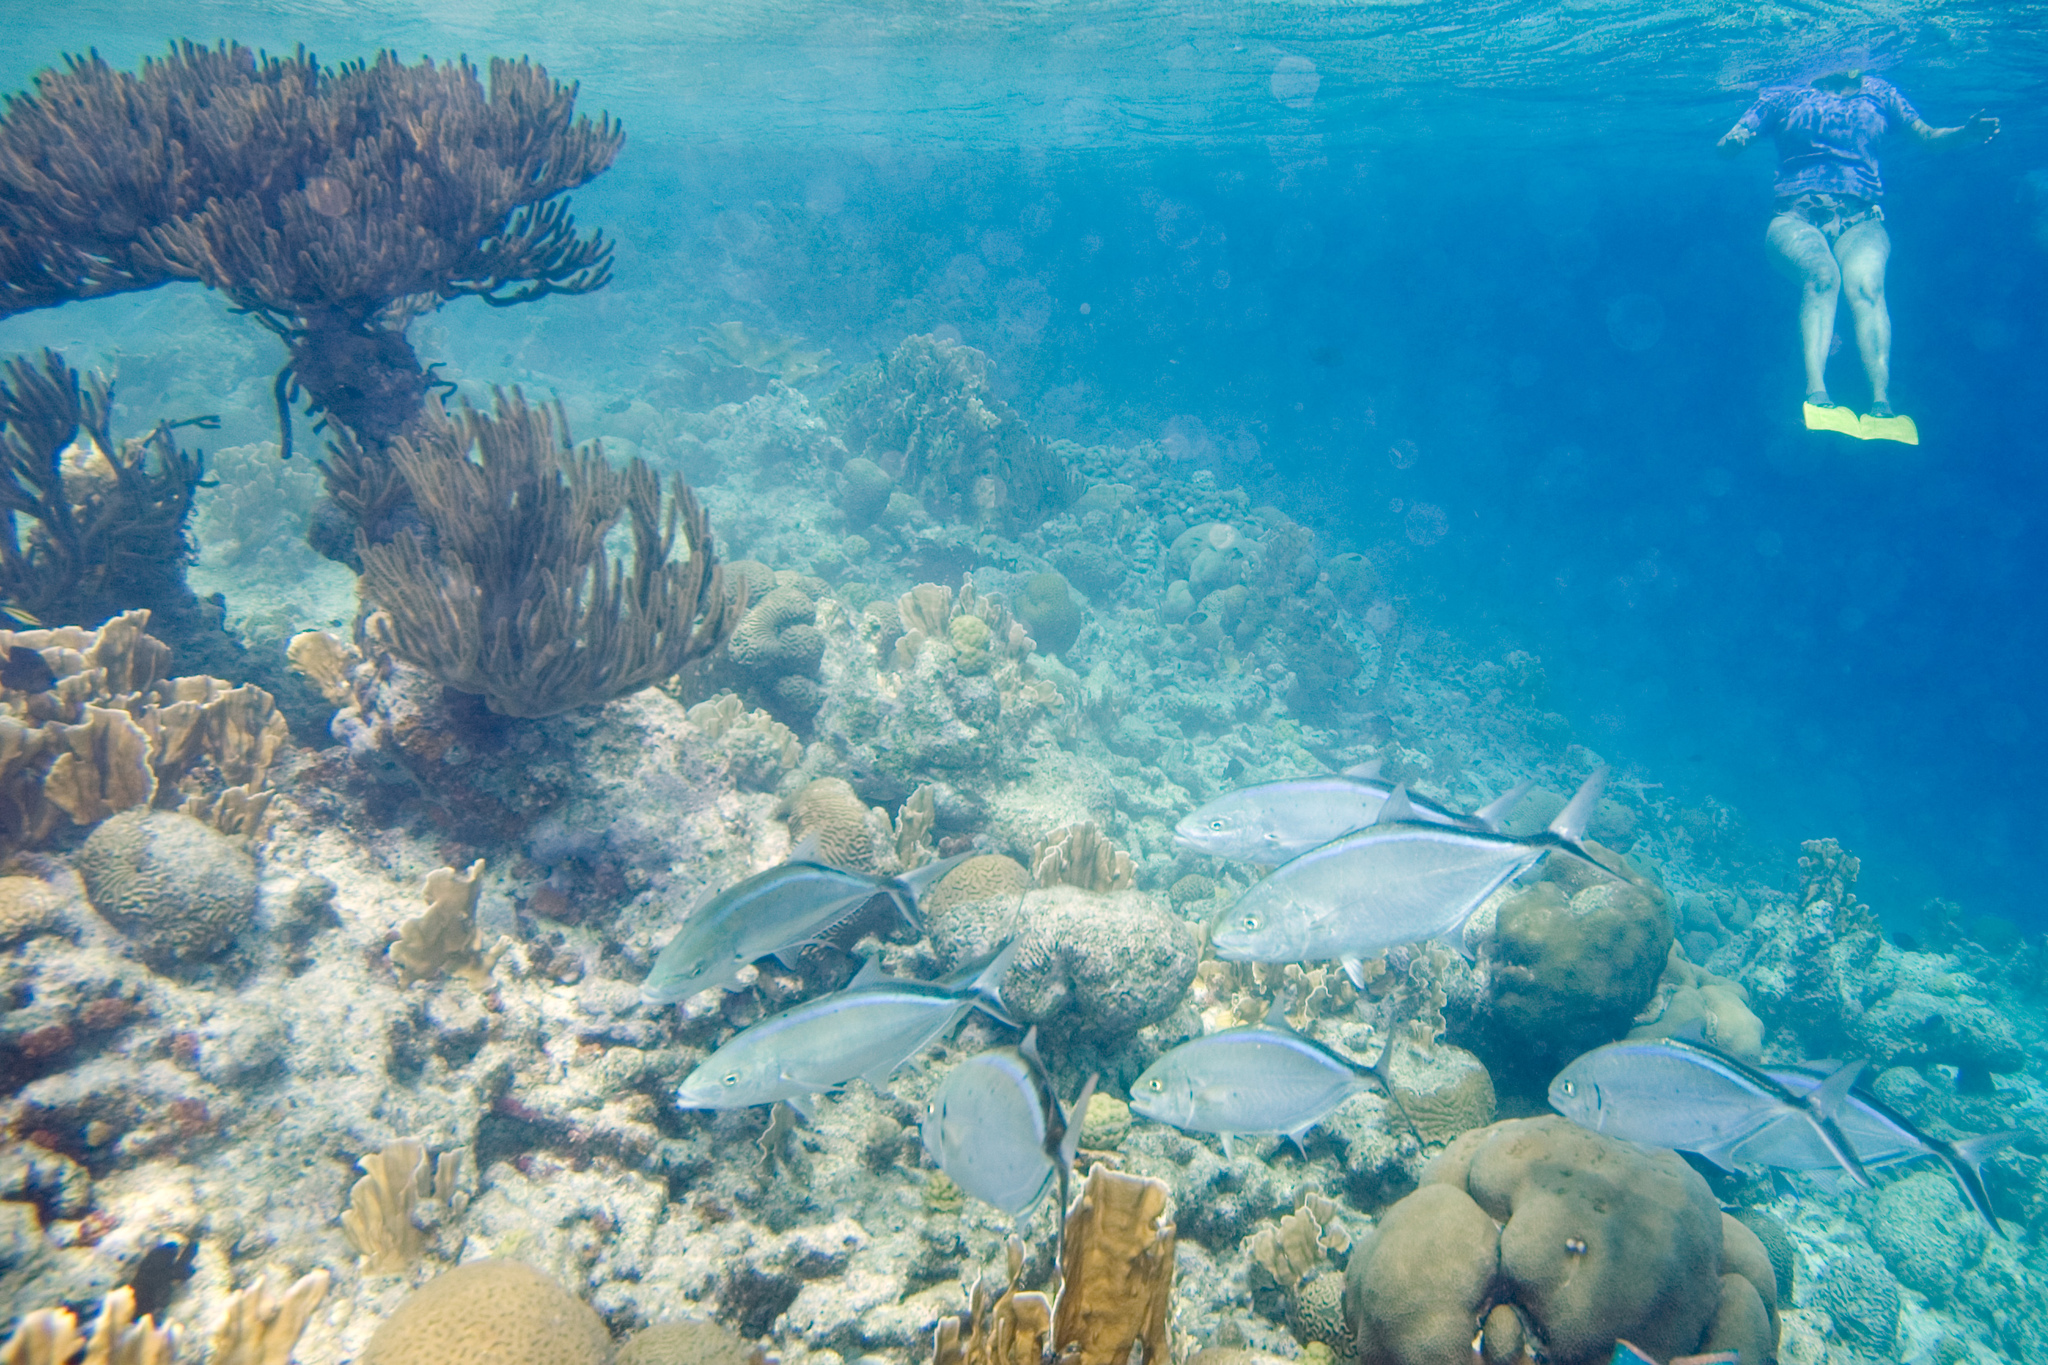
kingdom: Animalia
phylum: Chordata
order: Perciformes
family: Carangidae
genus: Caranx
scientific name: Caranx ruber
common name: Bar jack
